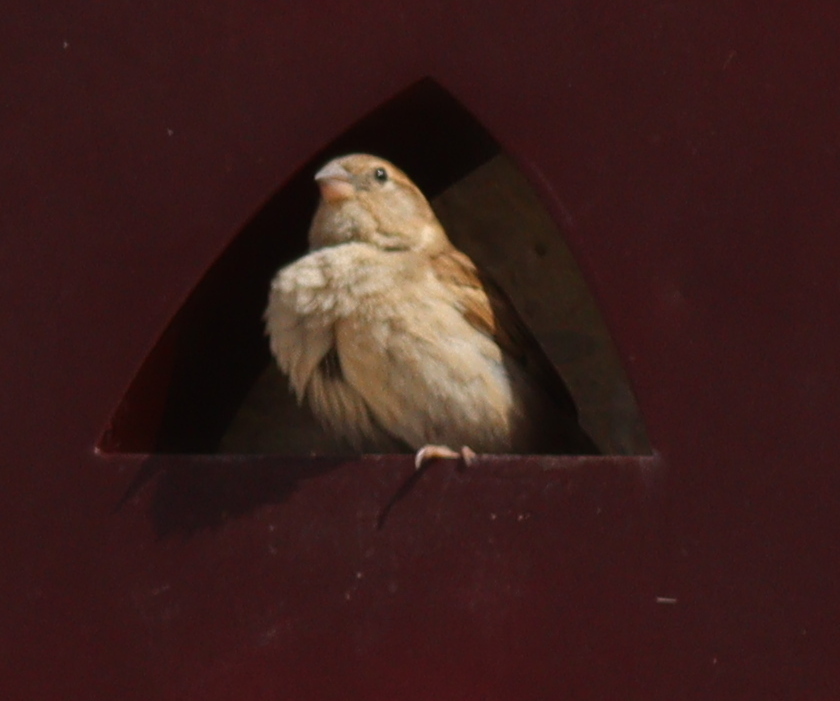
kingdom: Animalia
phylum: Chordata
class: Aves
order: Passeriformes
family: Passeridae
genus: Passer
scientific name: Passer domesticus
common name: House sparrow
